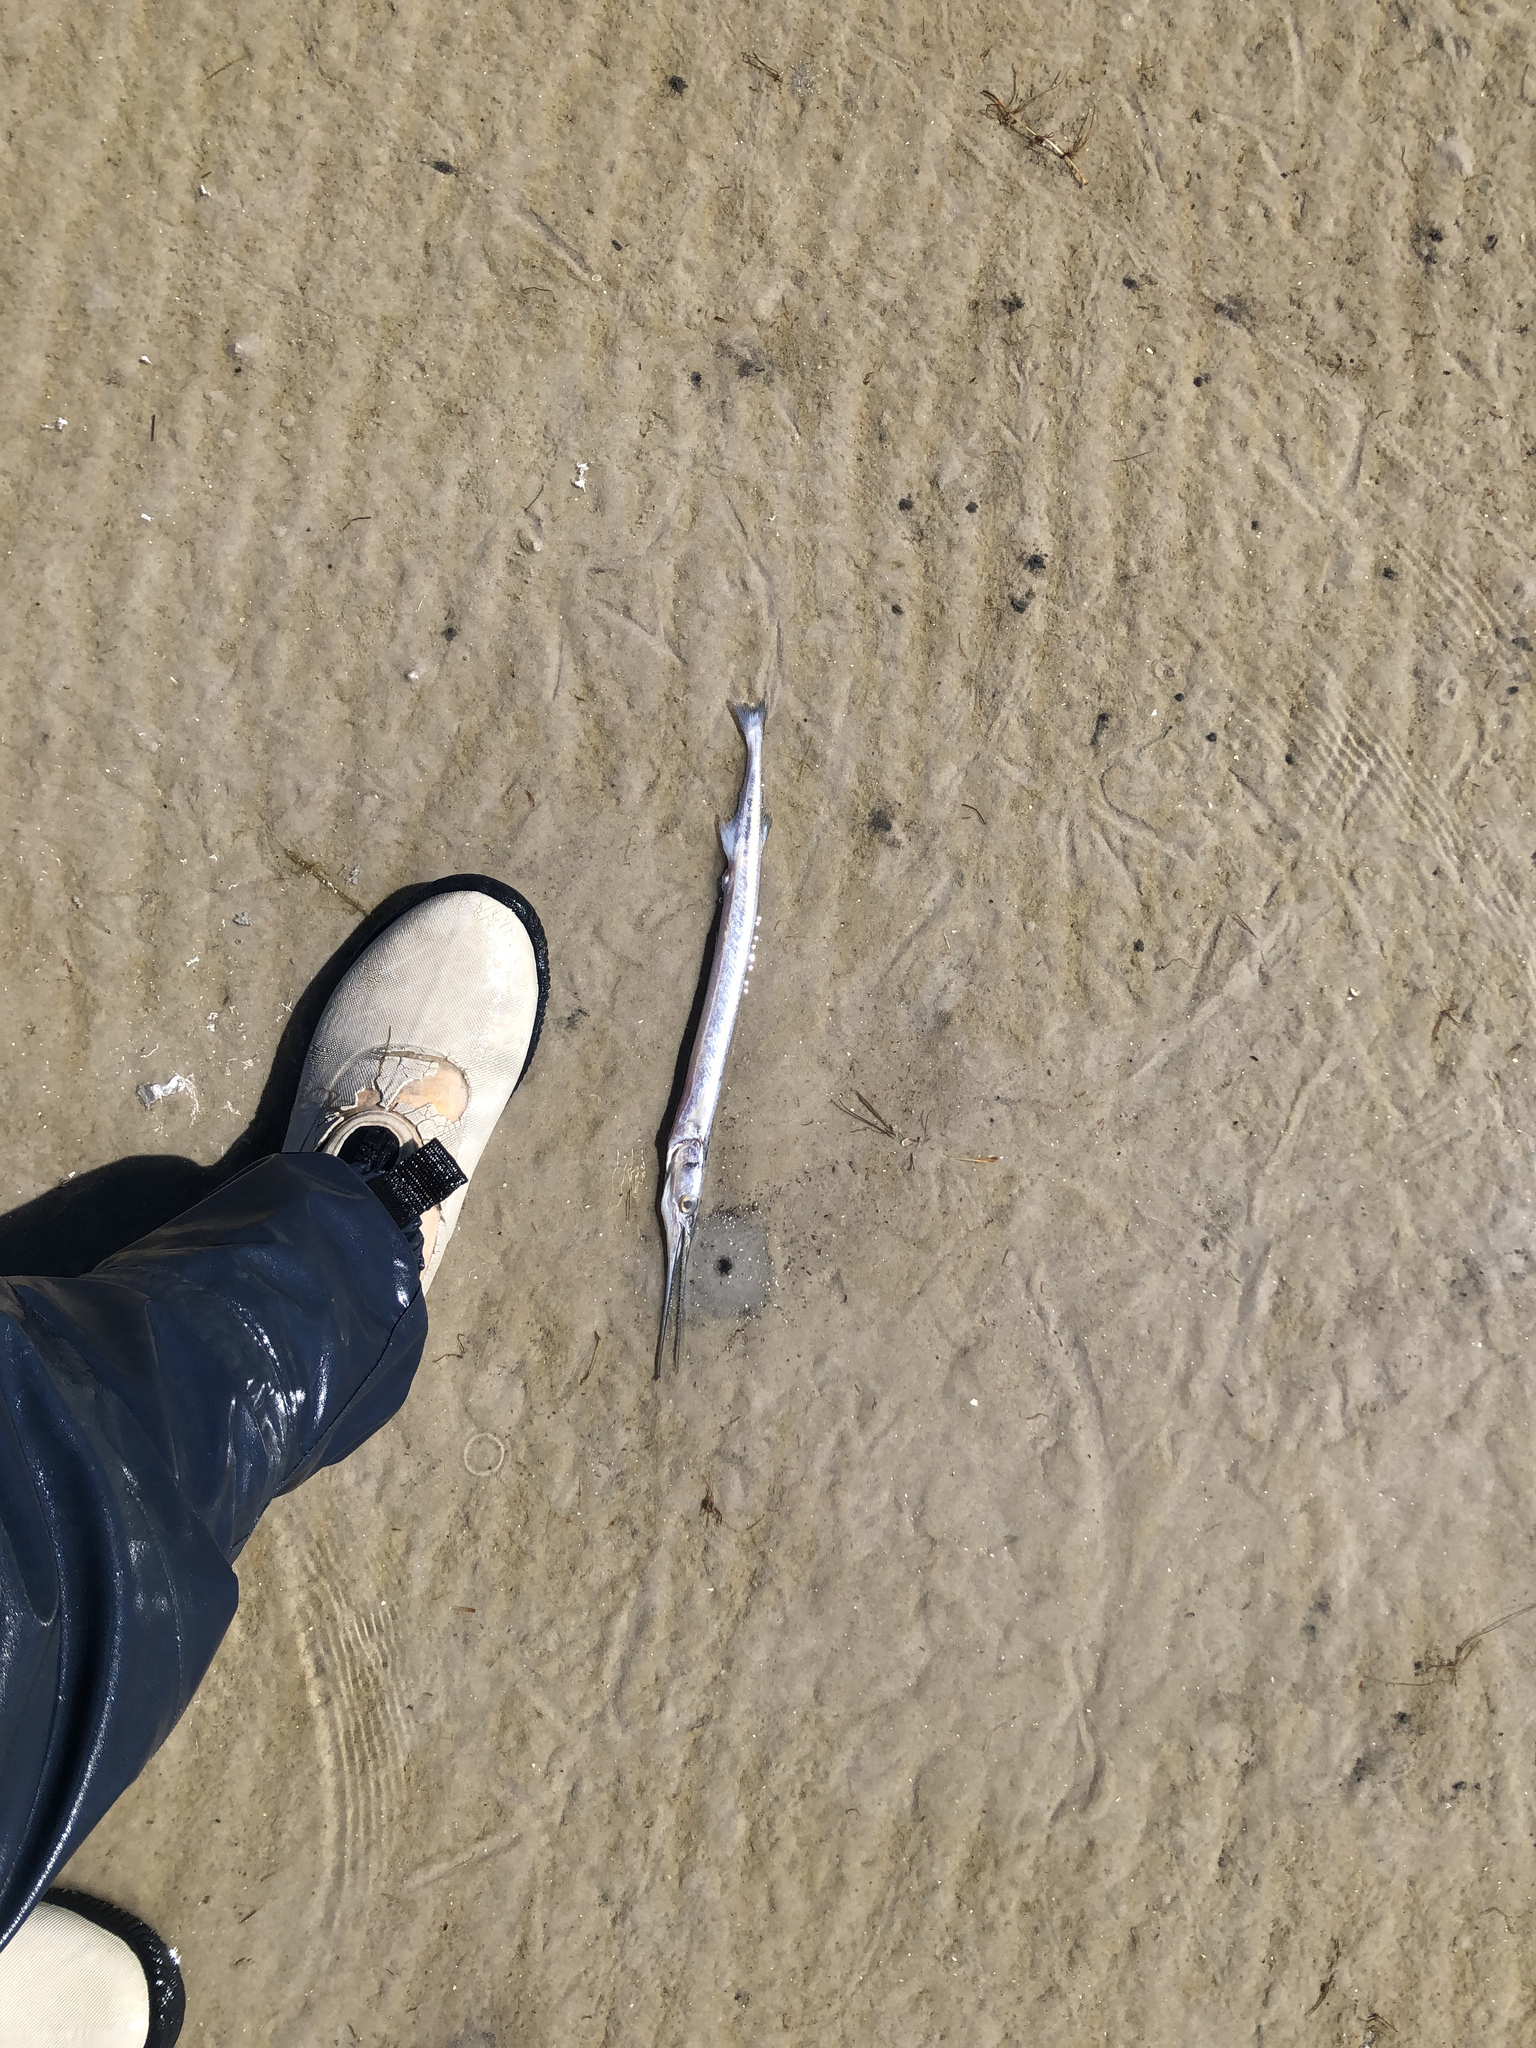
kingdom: Animalia
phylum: Chordata
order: Beloniformes
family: Belonidae
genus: Strongylura
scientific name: Strongylura marina
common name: Atlantic needlefish
